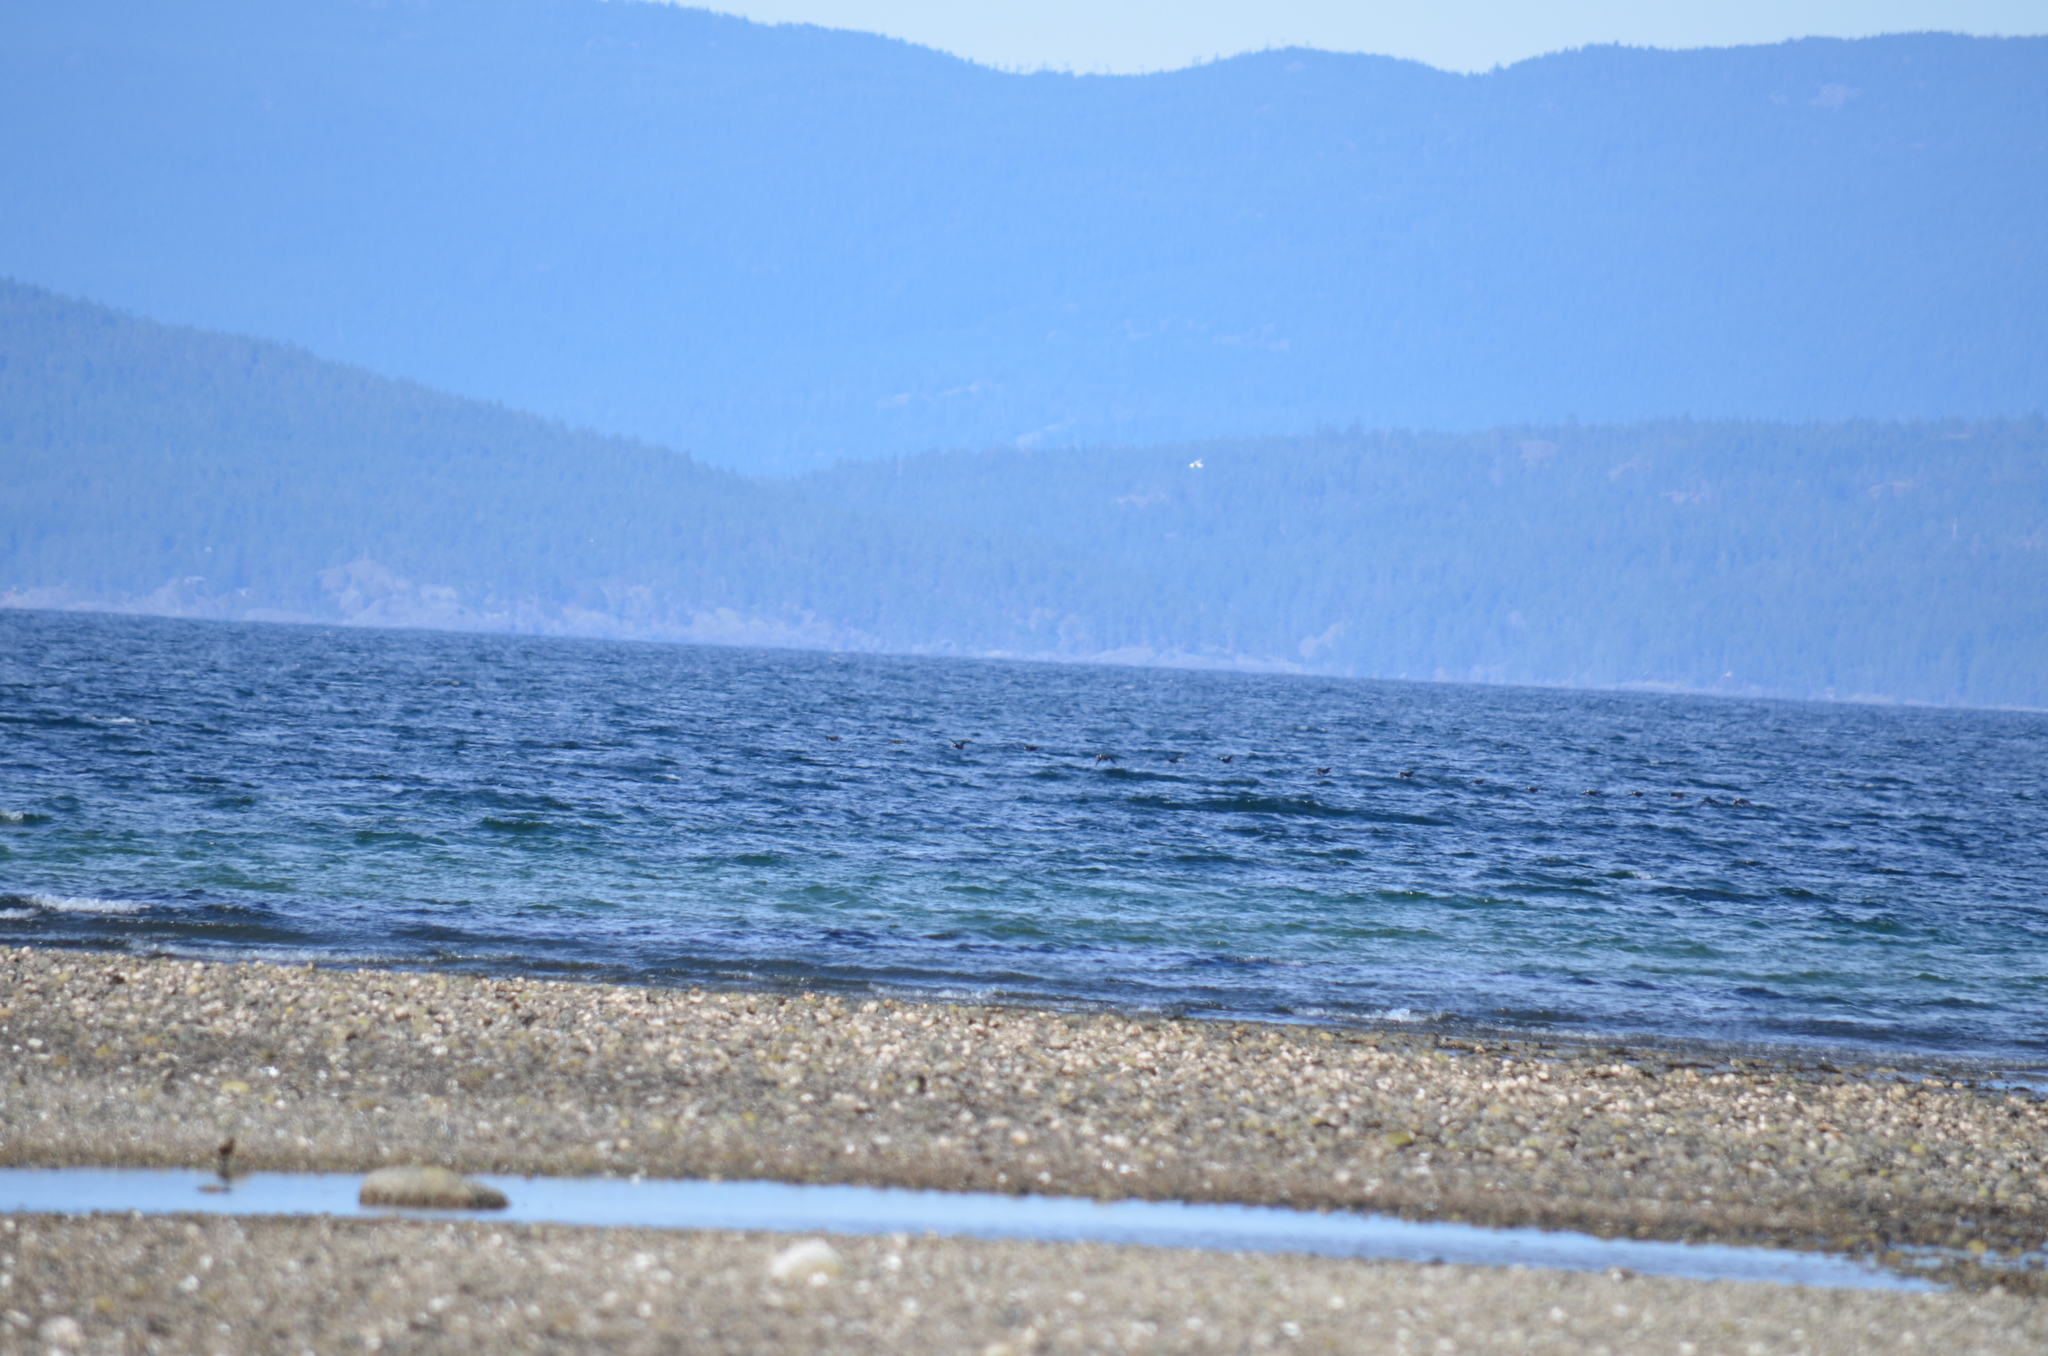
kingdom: Animalia
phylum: Chordata
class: Aves
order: Anseriformes
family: Anatidae
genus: Melanitta
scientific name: Melanitta perspicillata
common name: Surf scoter
